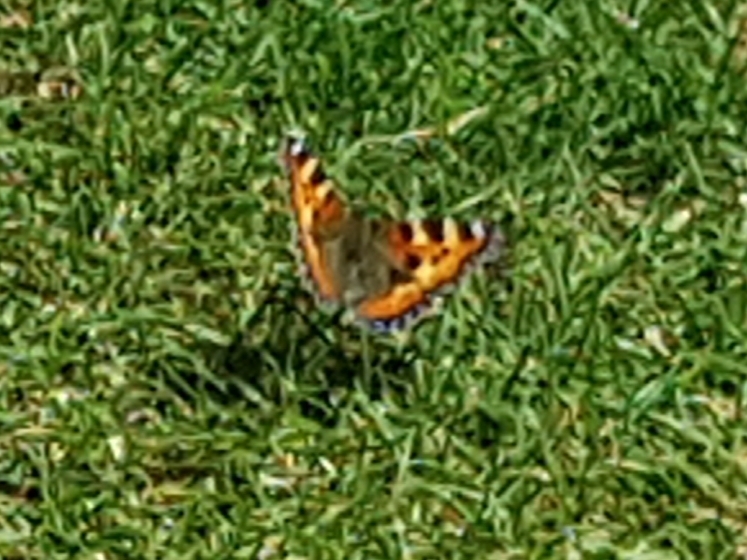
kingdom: Animalia
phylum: Arthropoda
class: Insecta
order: Lepidoptera
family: Nymphalidae
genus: Aglais
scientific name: Aglais urticae
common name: Small tortoiseshell
